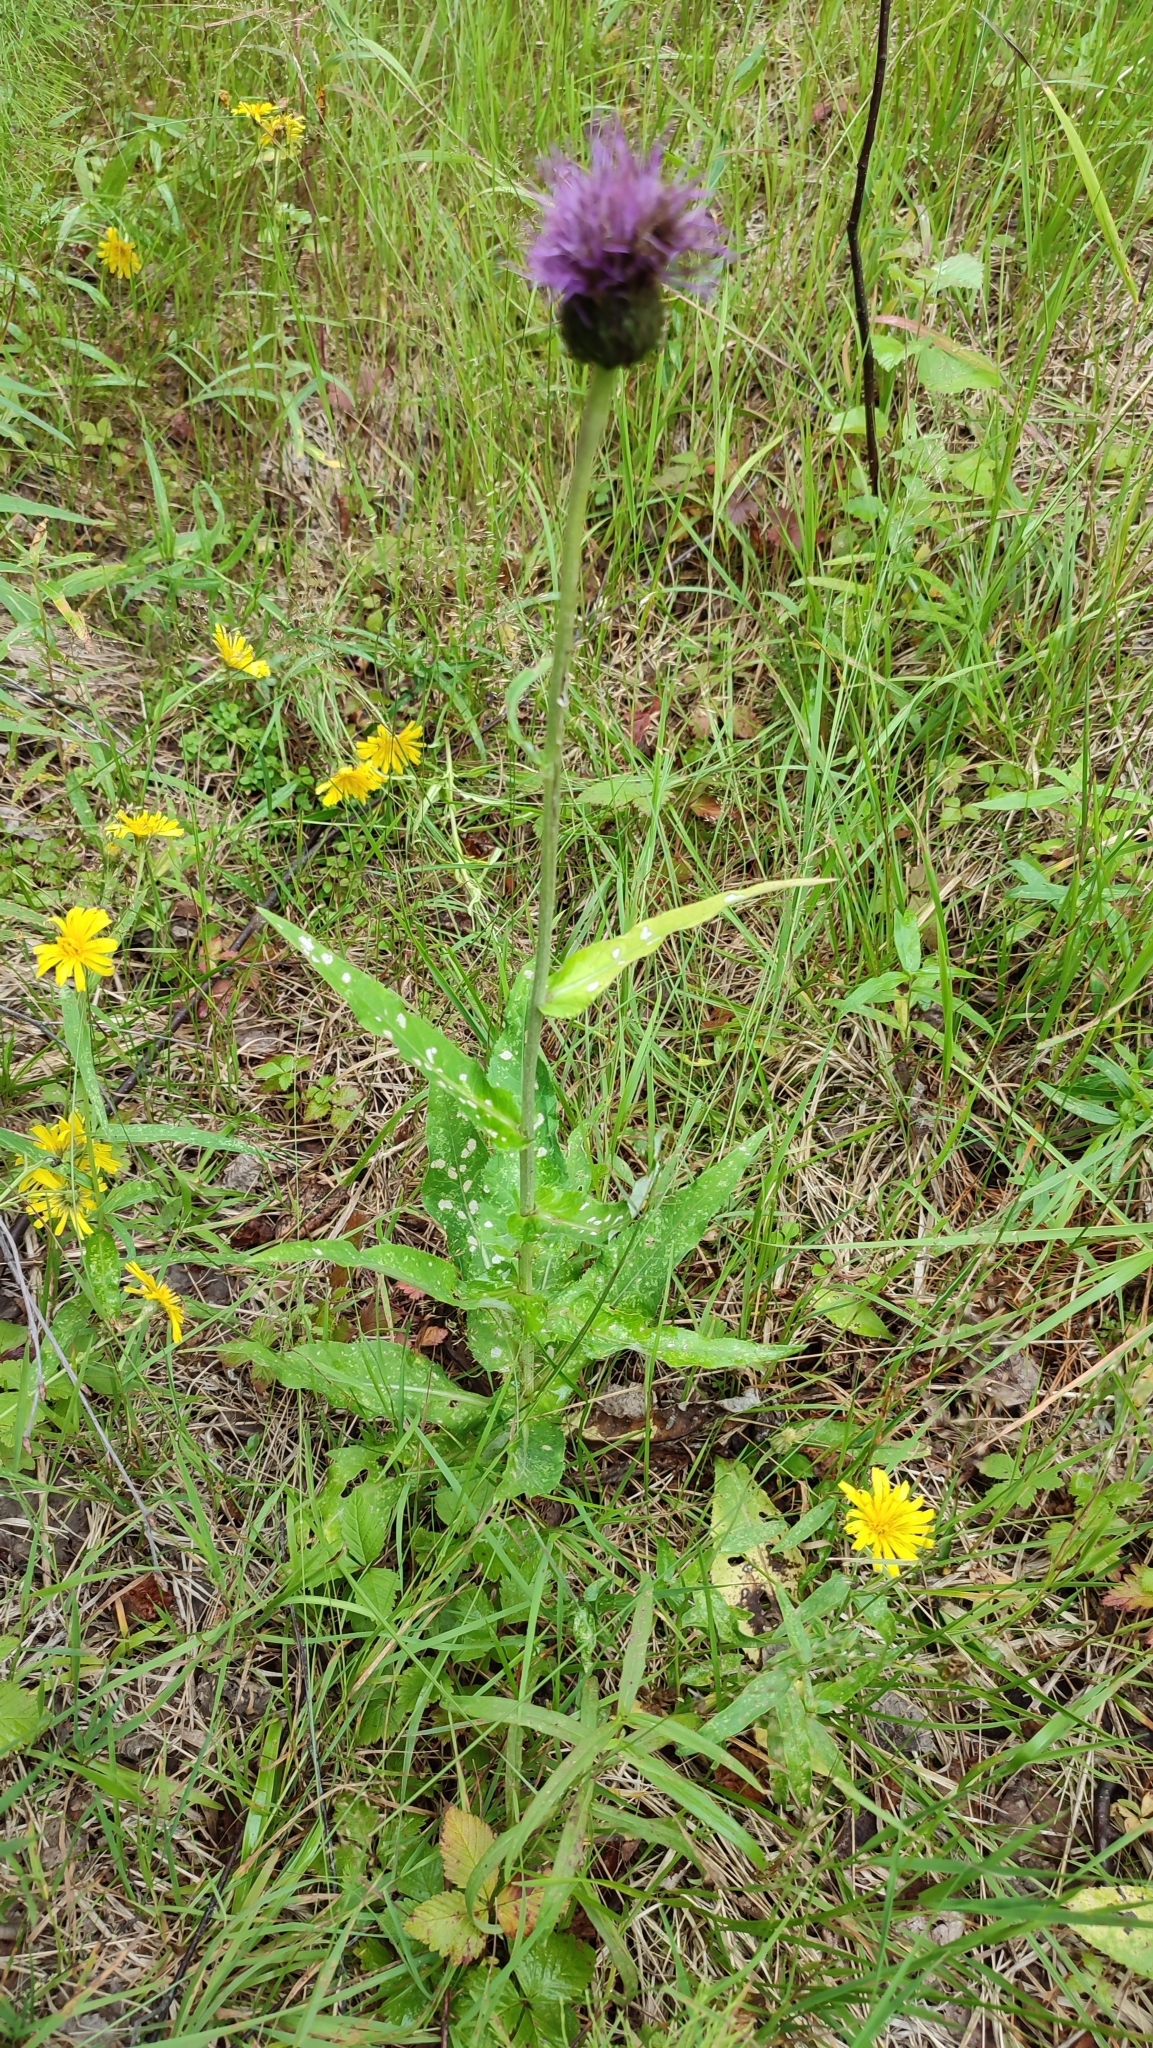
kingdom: Plantae
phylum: Tracheophyta
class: Magnoliopsida
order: Asterales
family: Asteraceae
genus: Cirsium
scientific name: Cirsium heterophyllum
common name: Melancholy thistle
